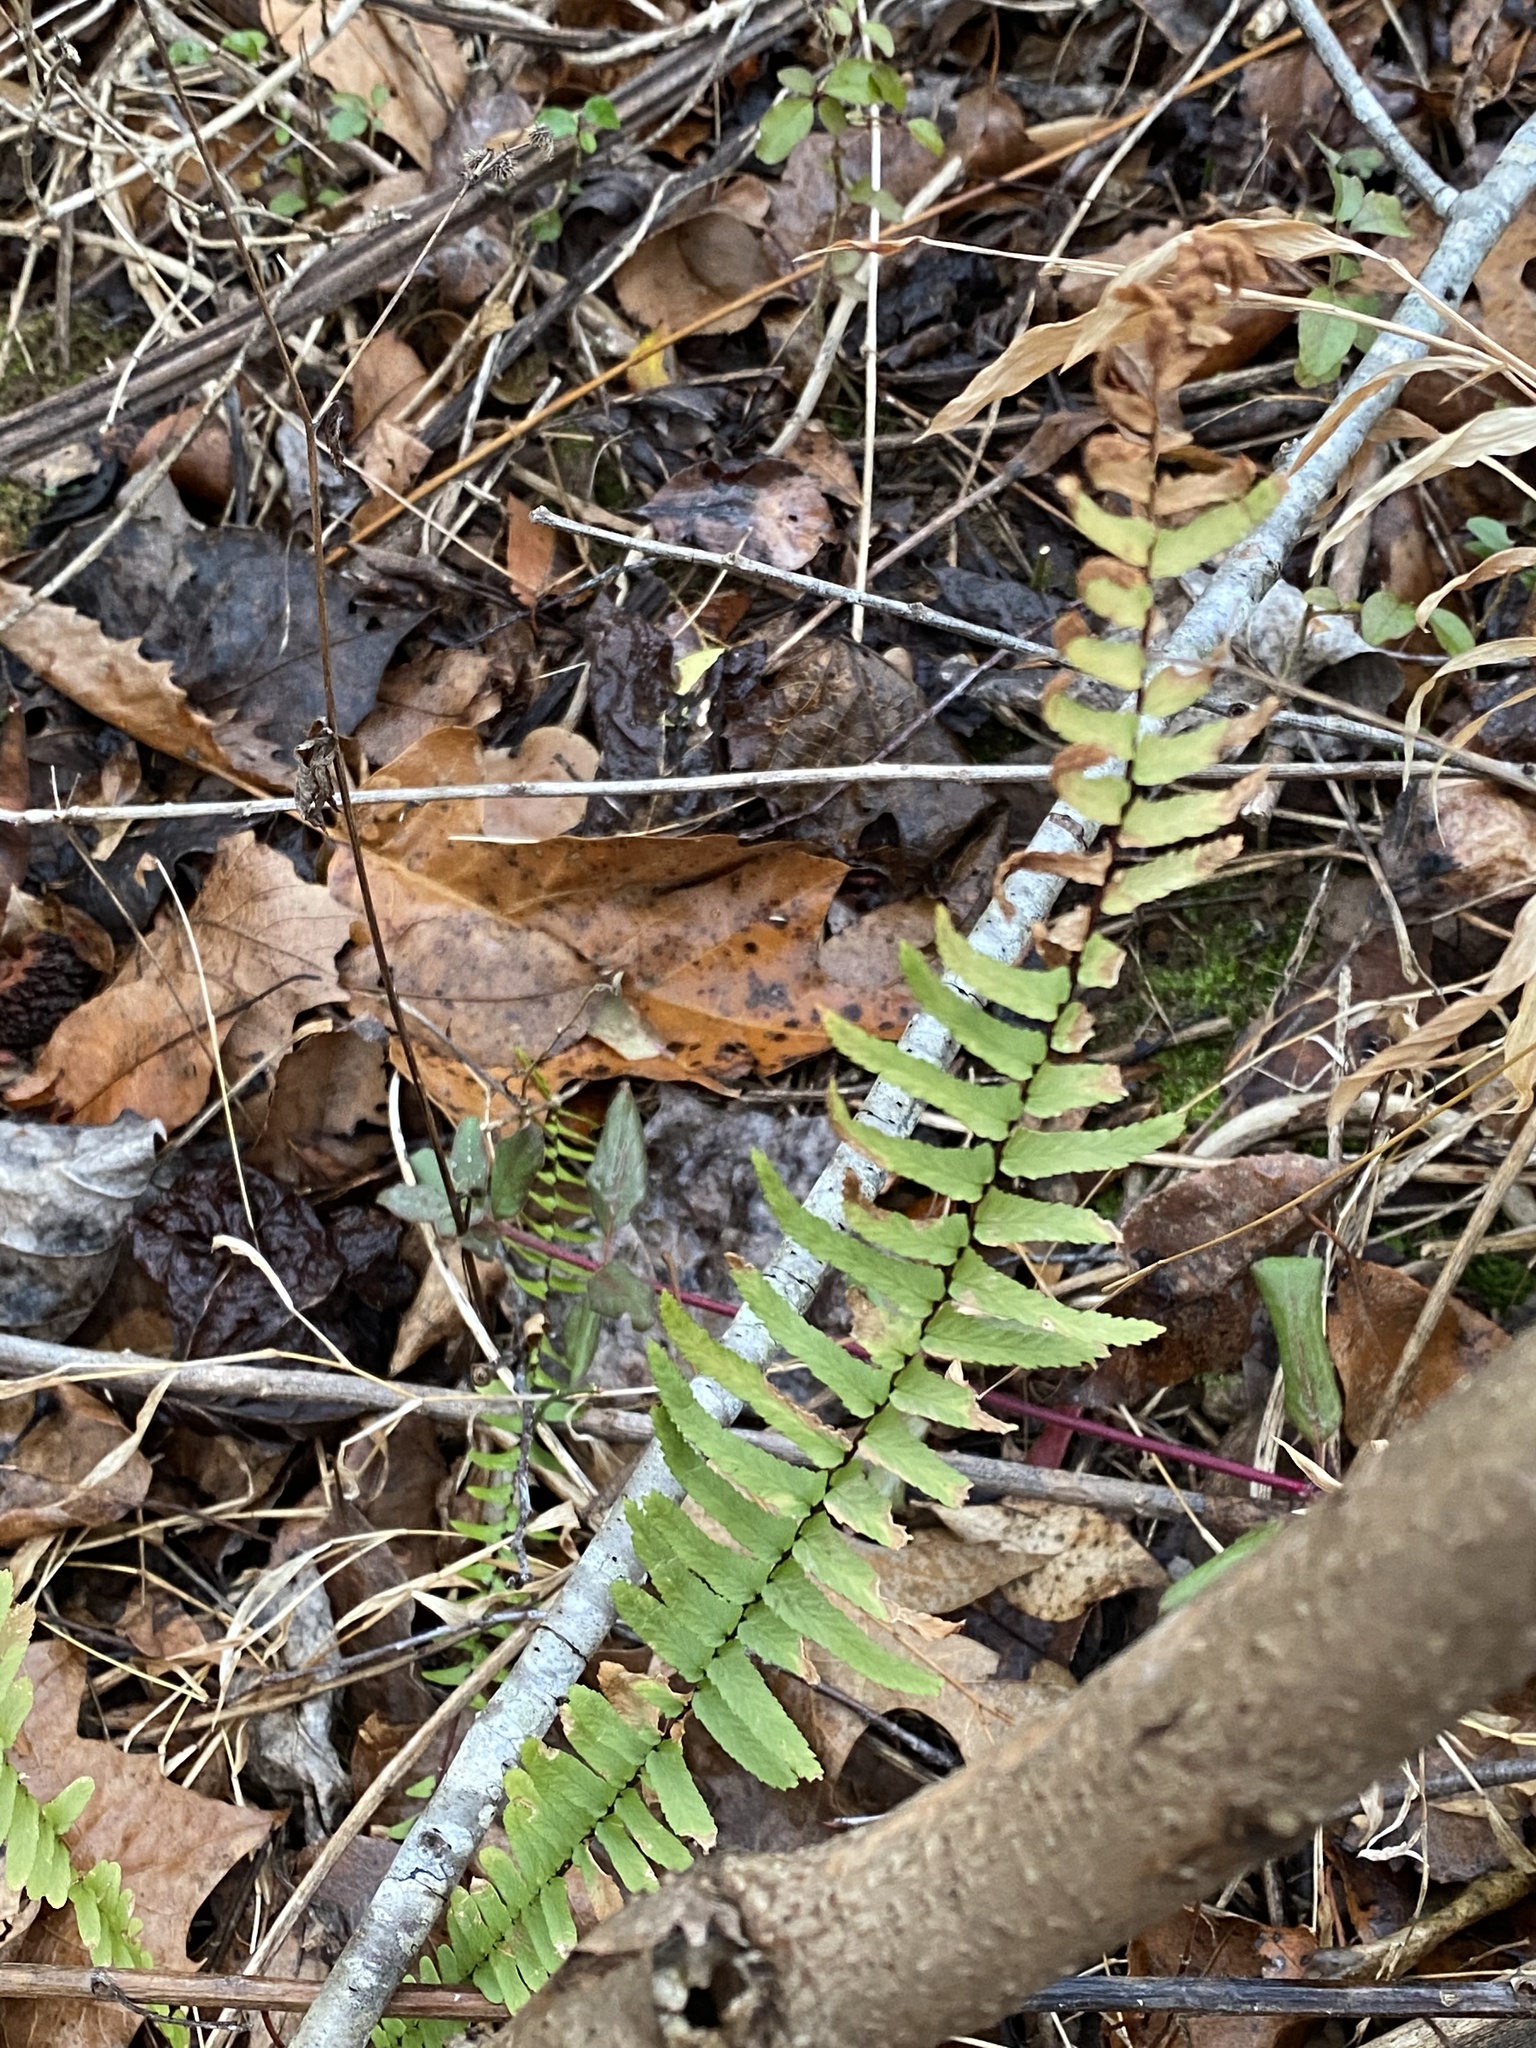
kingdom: Plantae
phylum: Tracheophyta
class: Polypodiopsida
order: Polypodiales
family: Aspleniaceae
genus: Asplenium
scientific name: Asplenium platyneuron
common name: Ebony spleenwort
